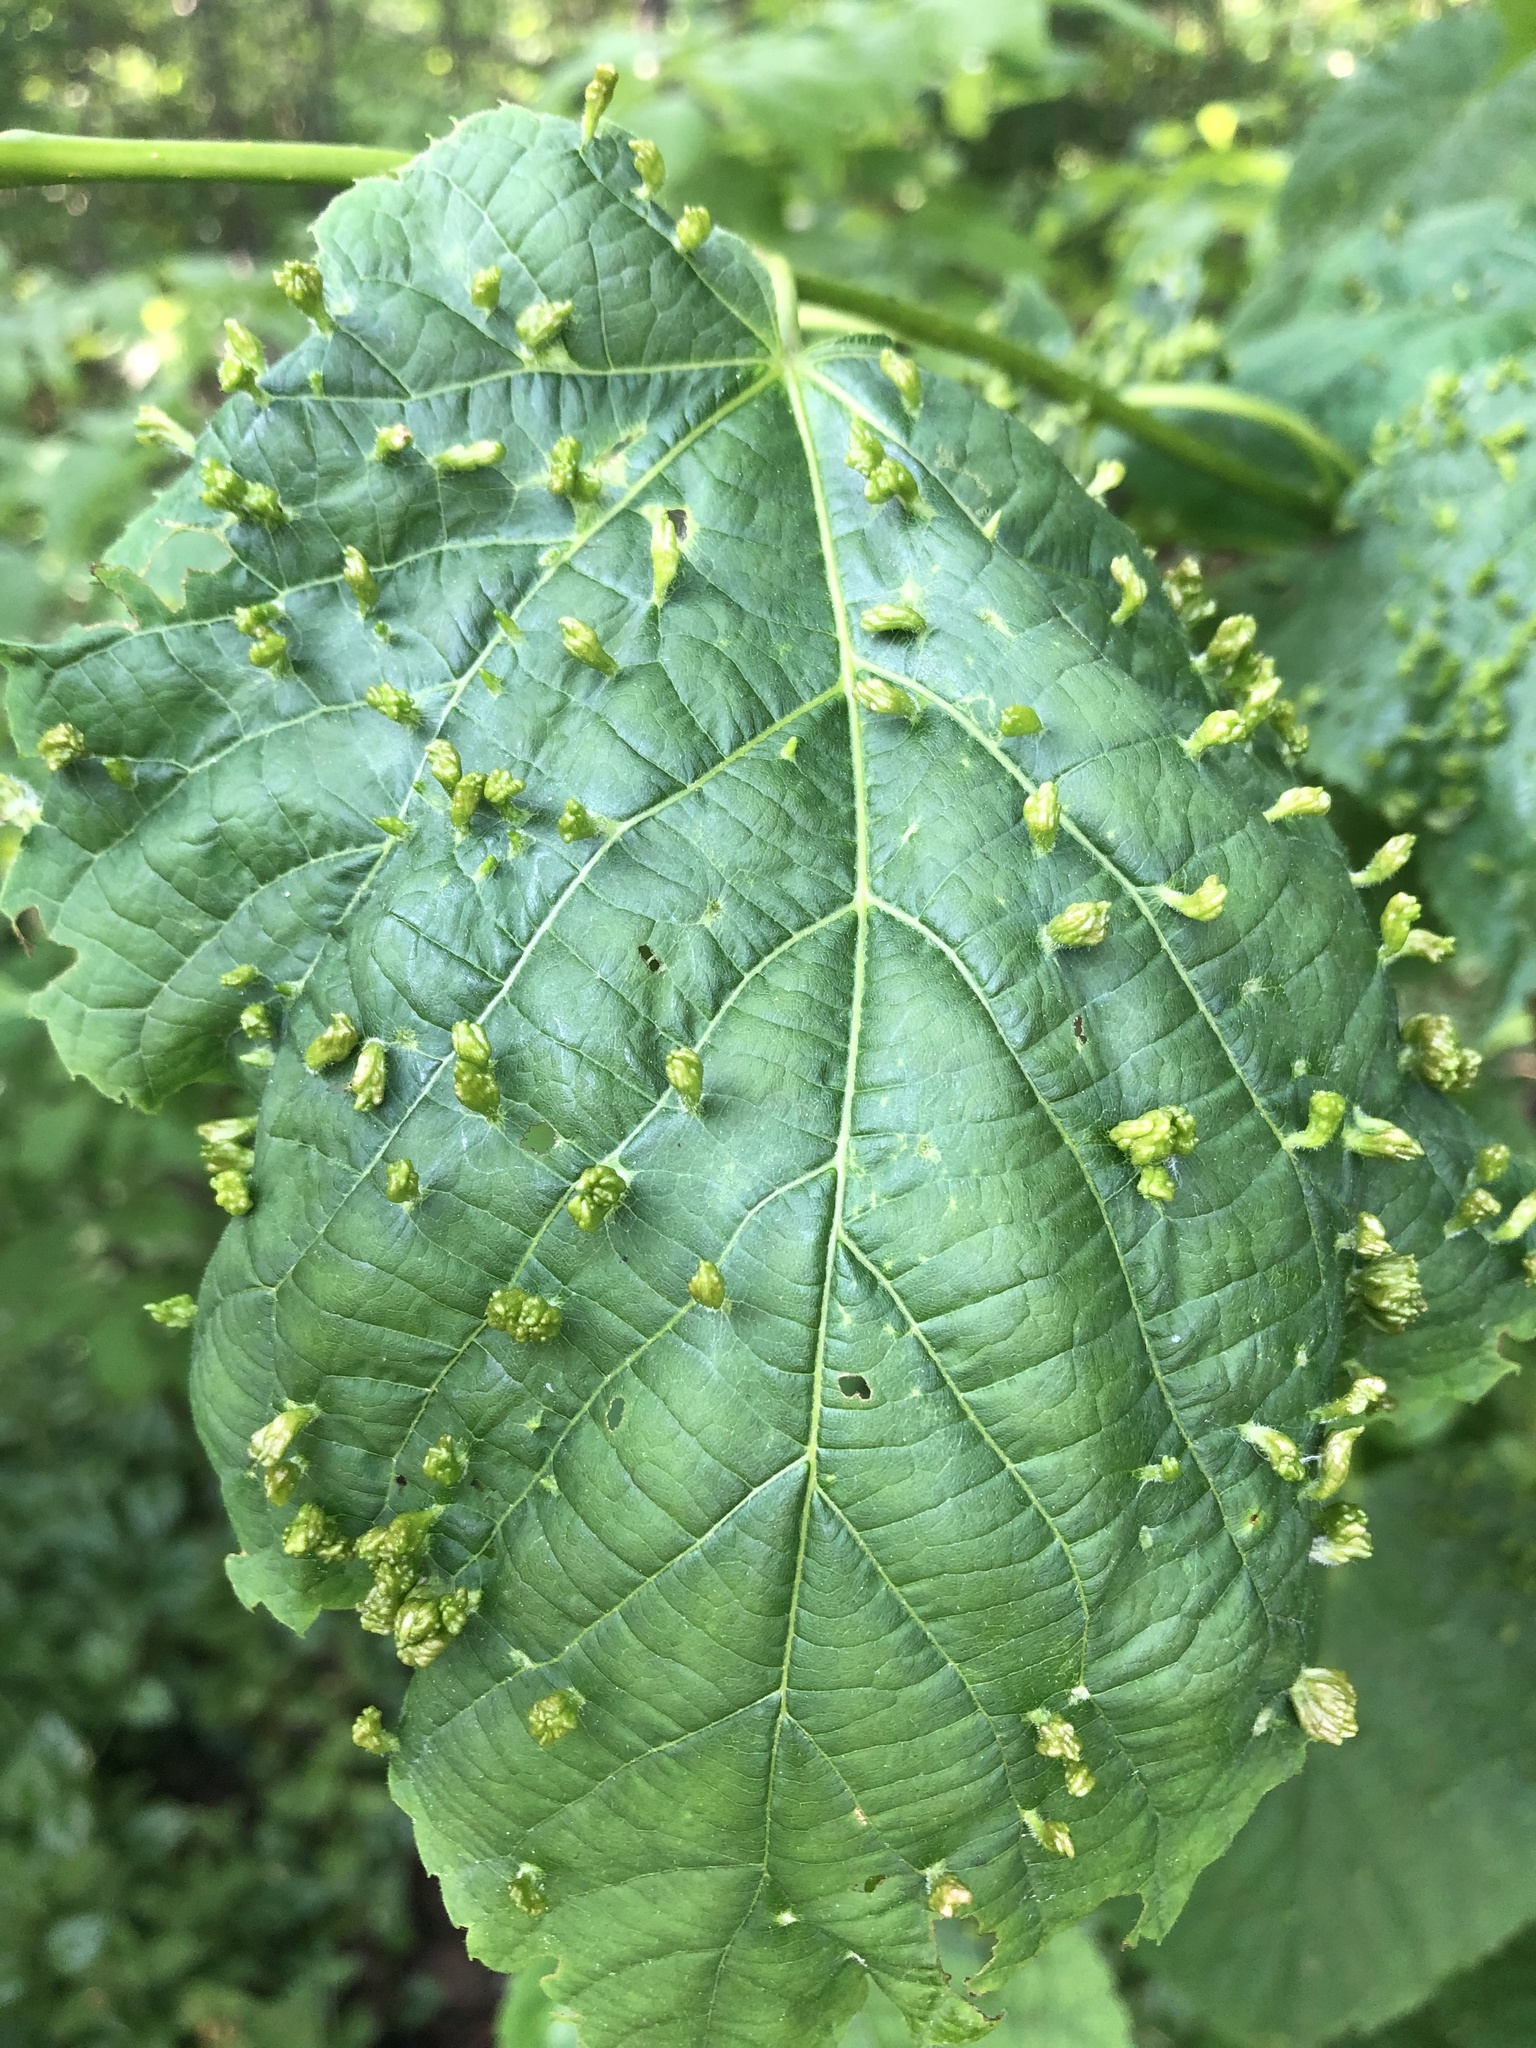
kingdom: Animalia
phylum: Arthropoda
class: Arachnida
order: Trombidiformes
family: Eriophyidae
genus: Eriophyes
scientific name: Eriophyes tiliae
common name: Red nail gall mite
